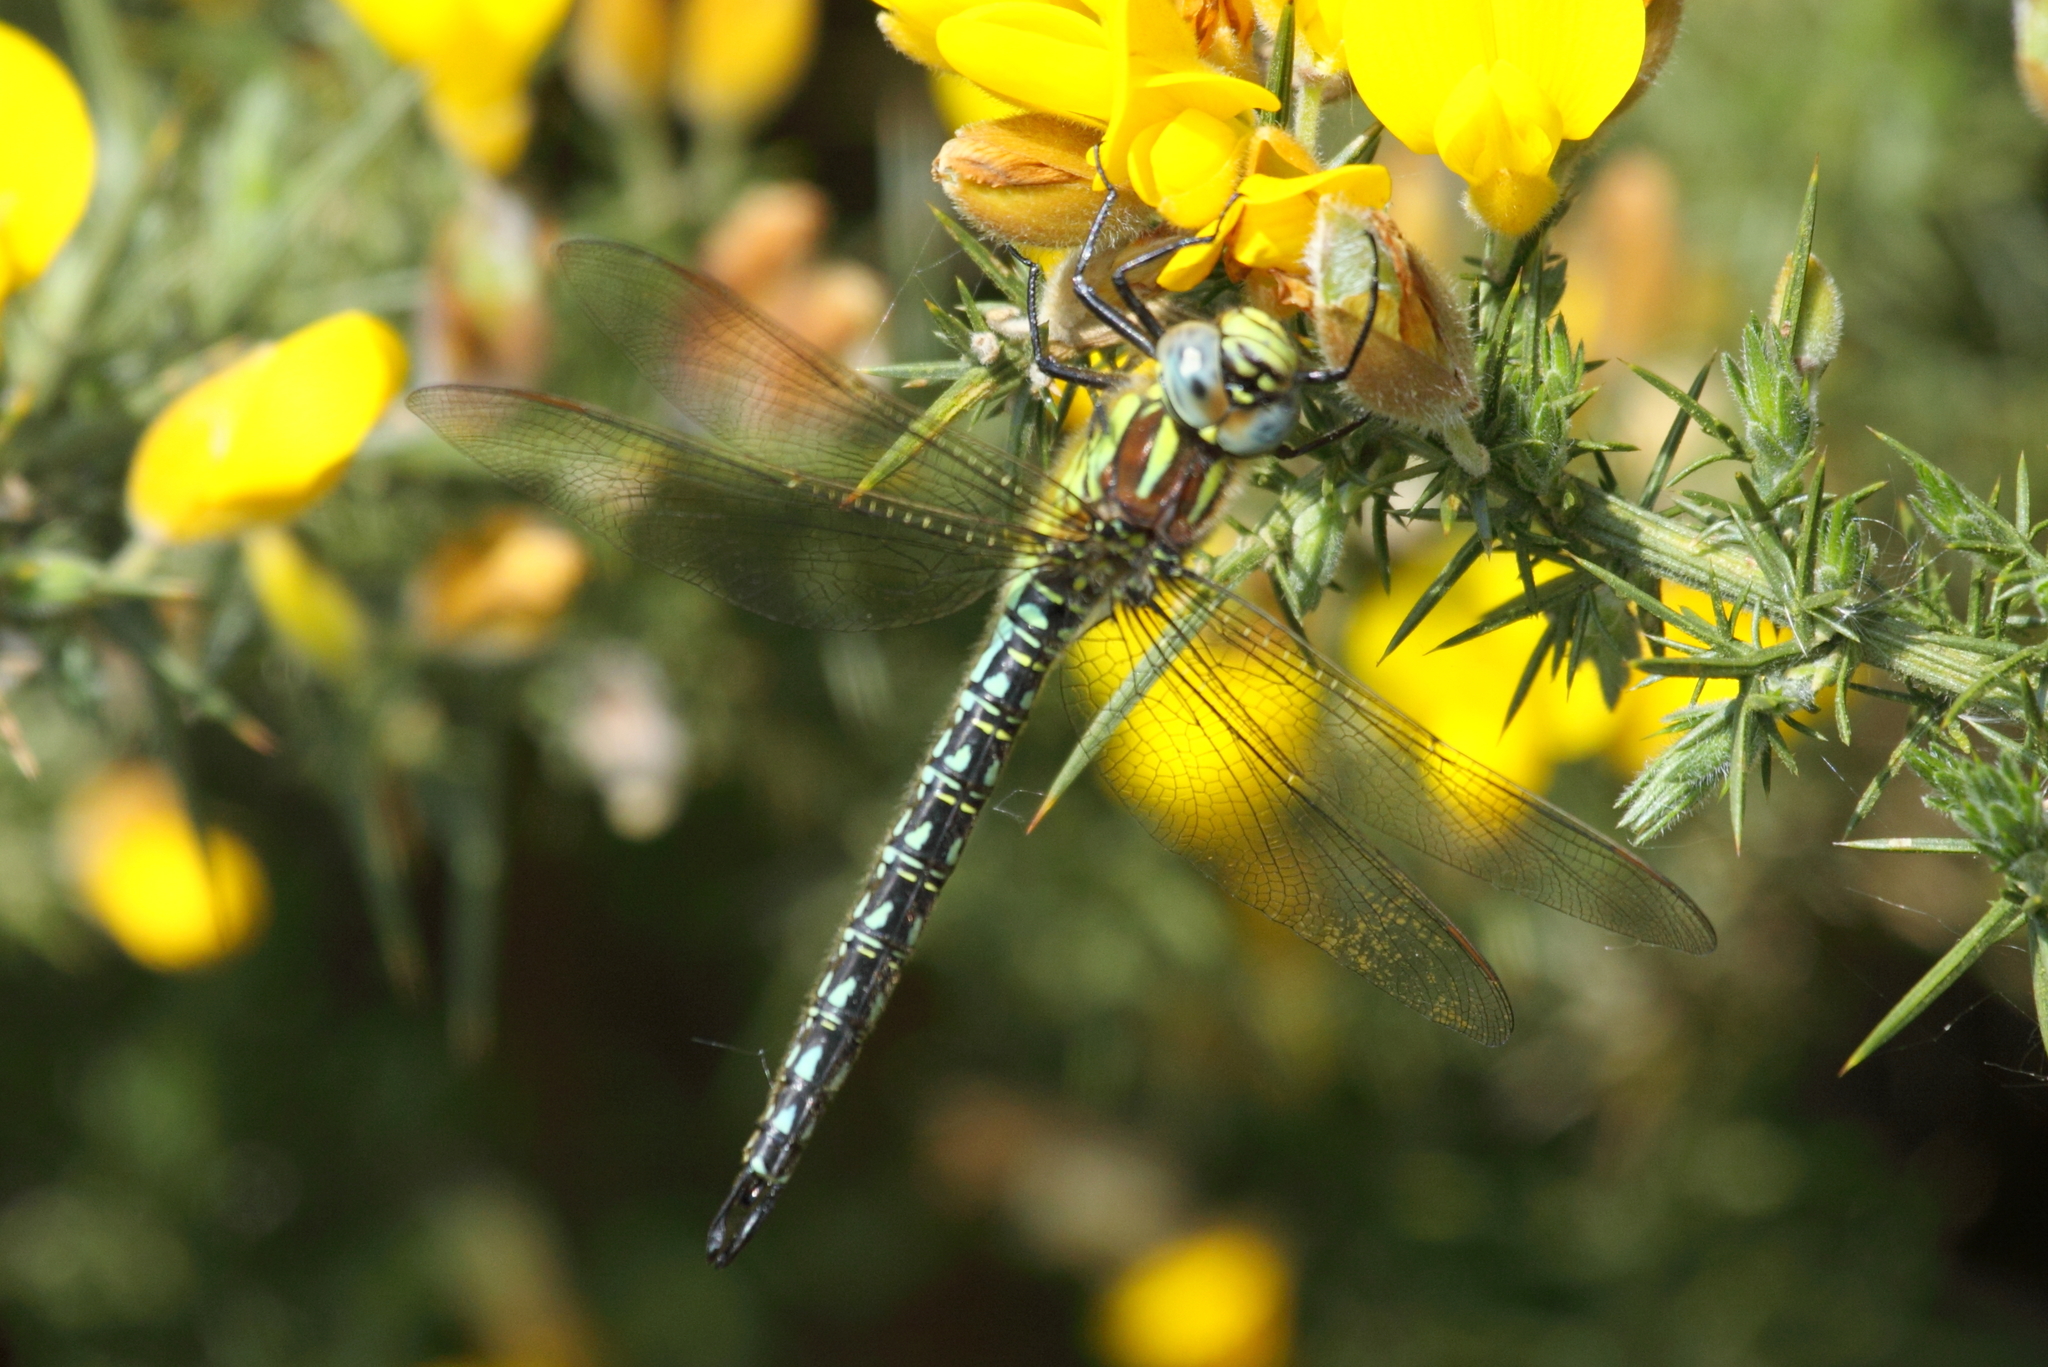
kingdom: Animalia
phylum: Arthropoda
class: Insecta
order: Odonata
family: Aeshnidae
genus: Brachytron
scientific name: Brachytron pratense
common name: Hairy hawker
